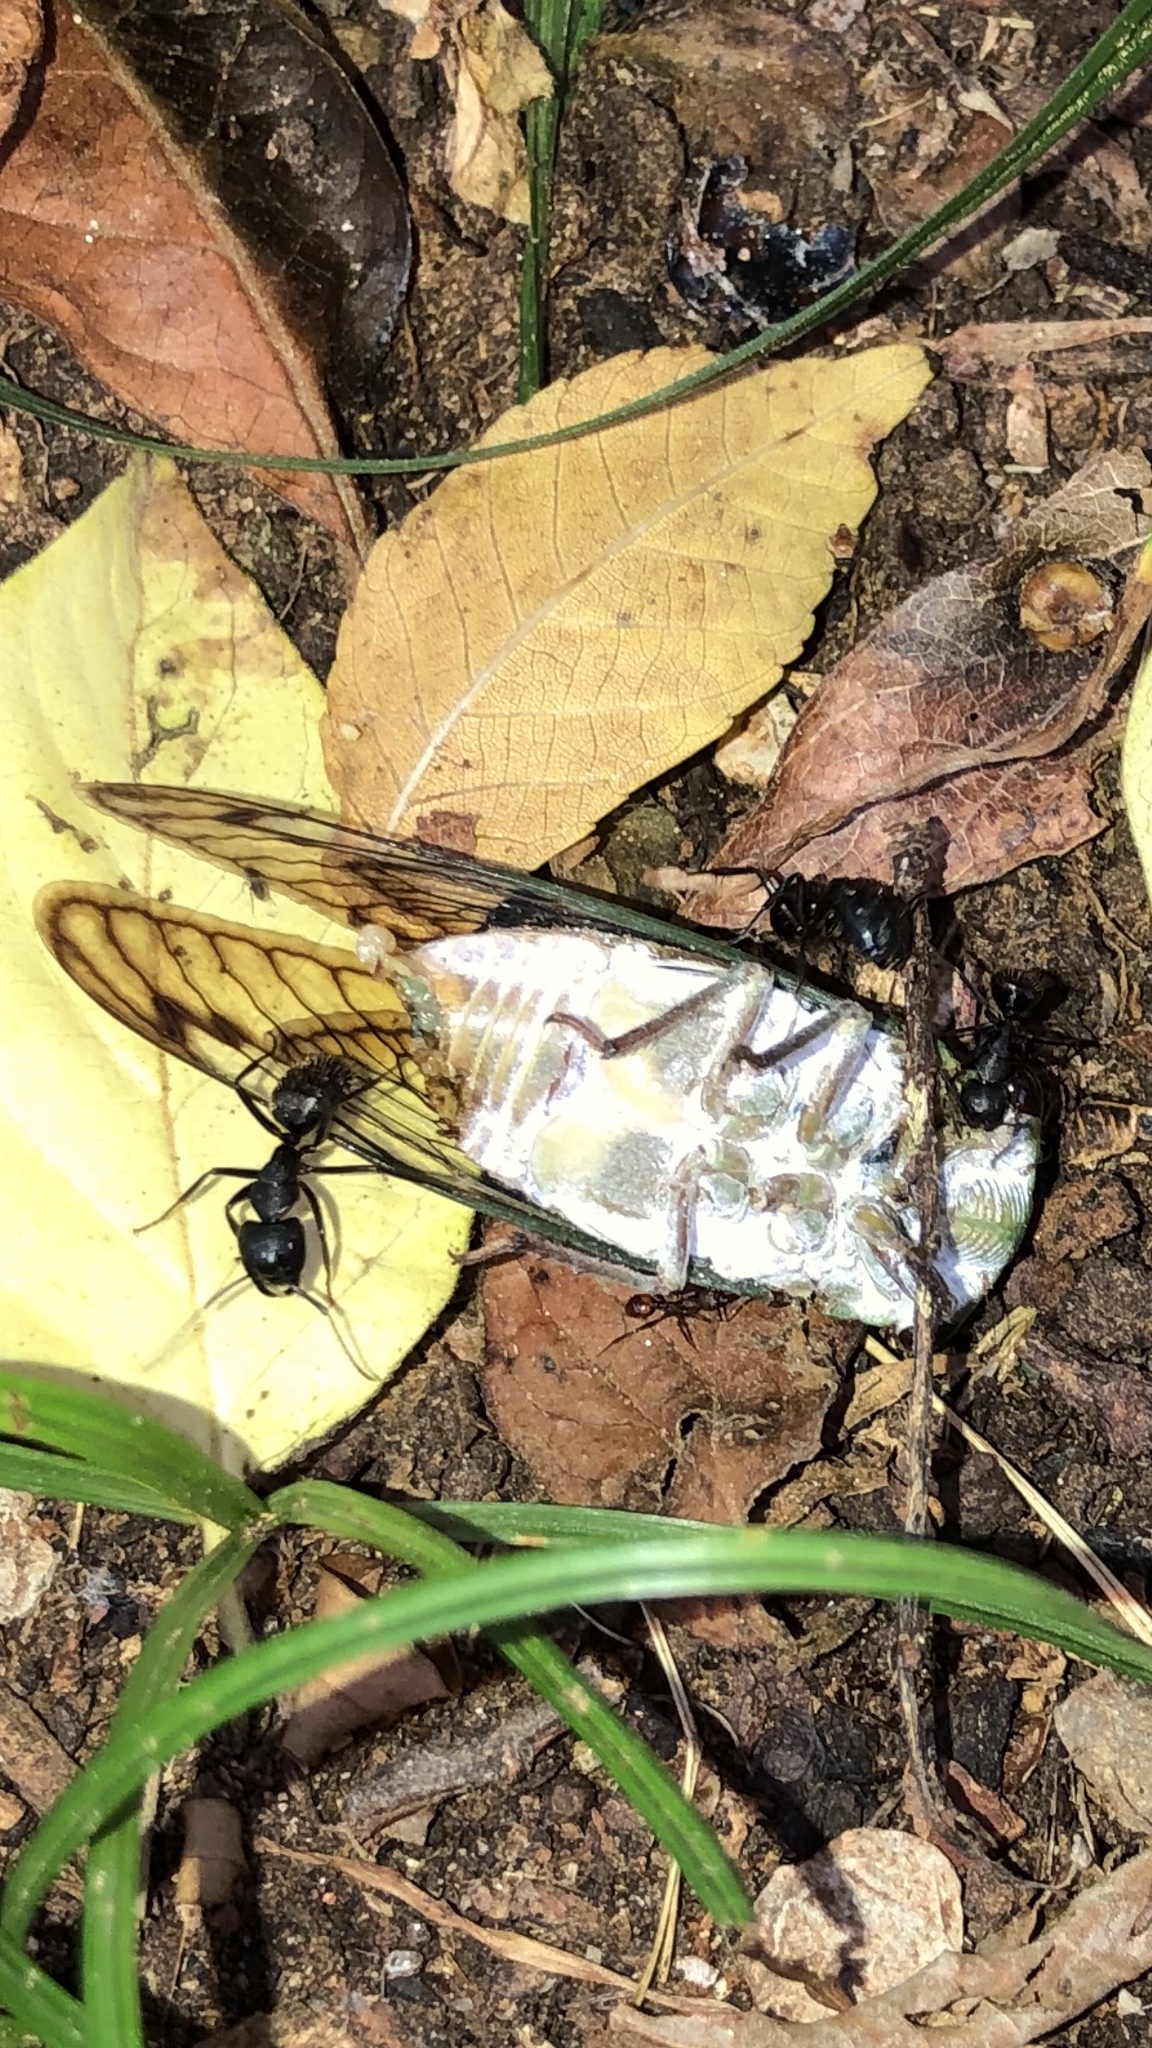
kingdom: Animalia
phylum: Arthropoda
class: Insecta
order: Hymenoptera
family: Formicidae
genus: Camponotus
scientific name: Camponotus pennsylvanicus
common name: Black carpenter ant
